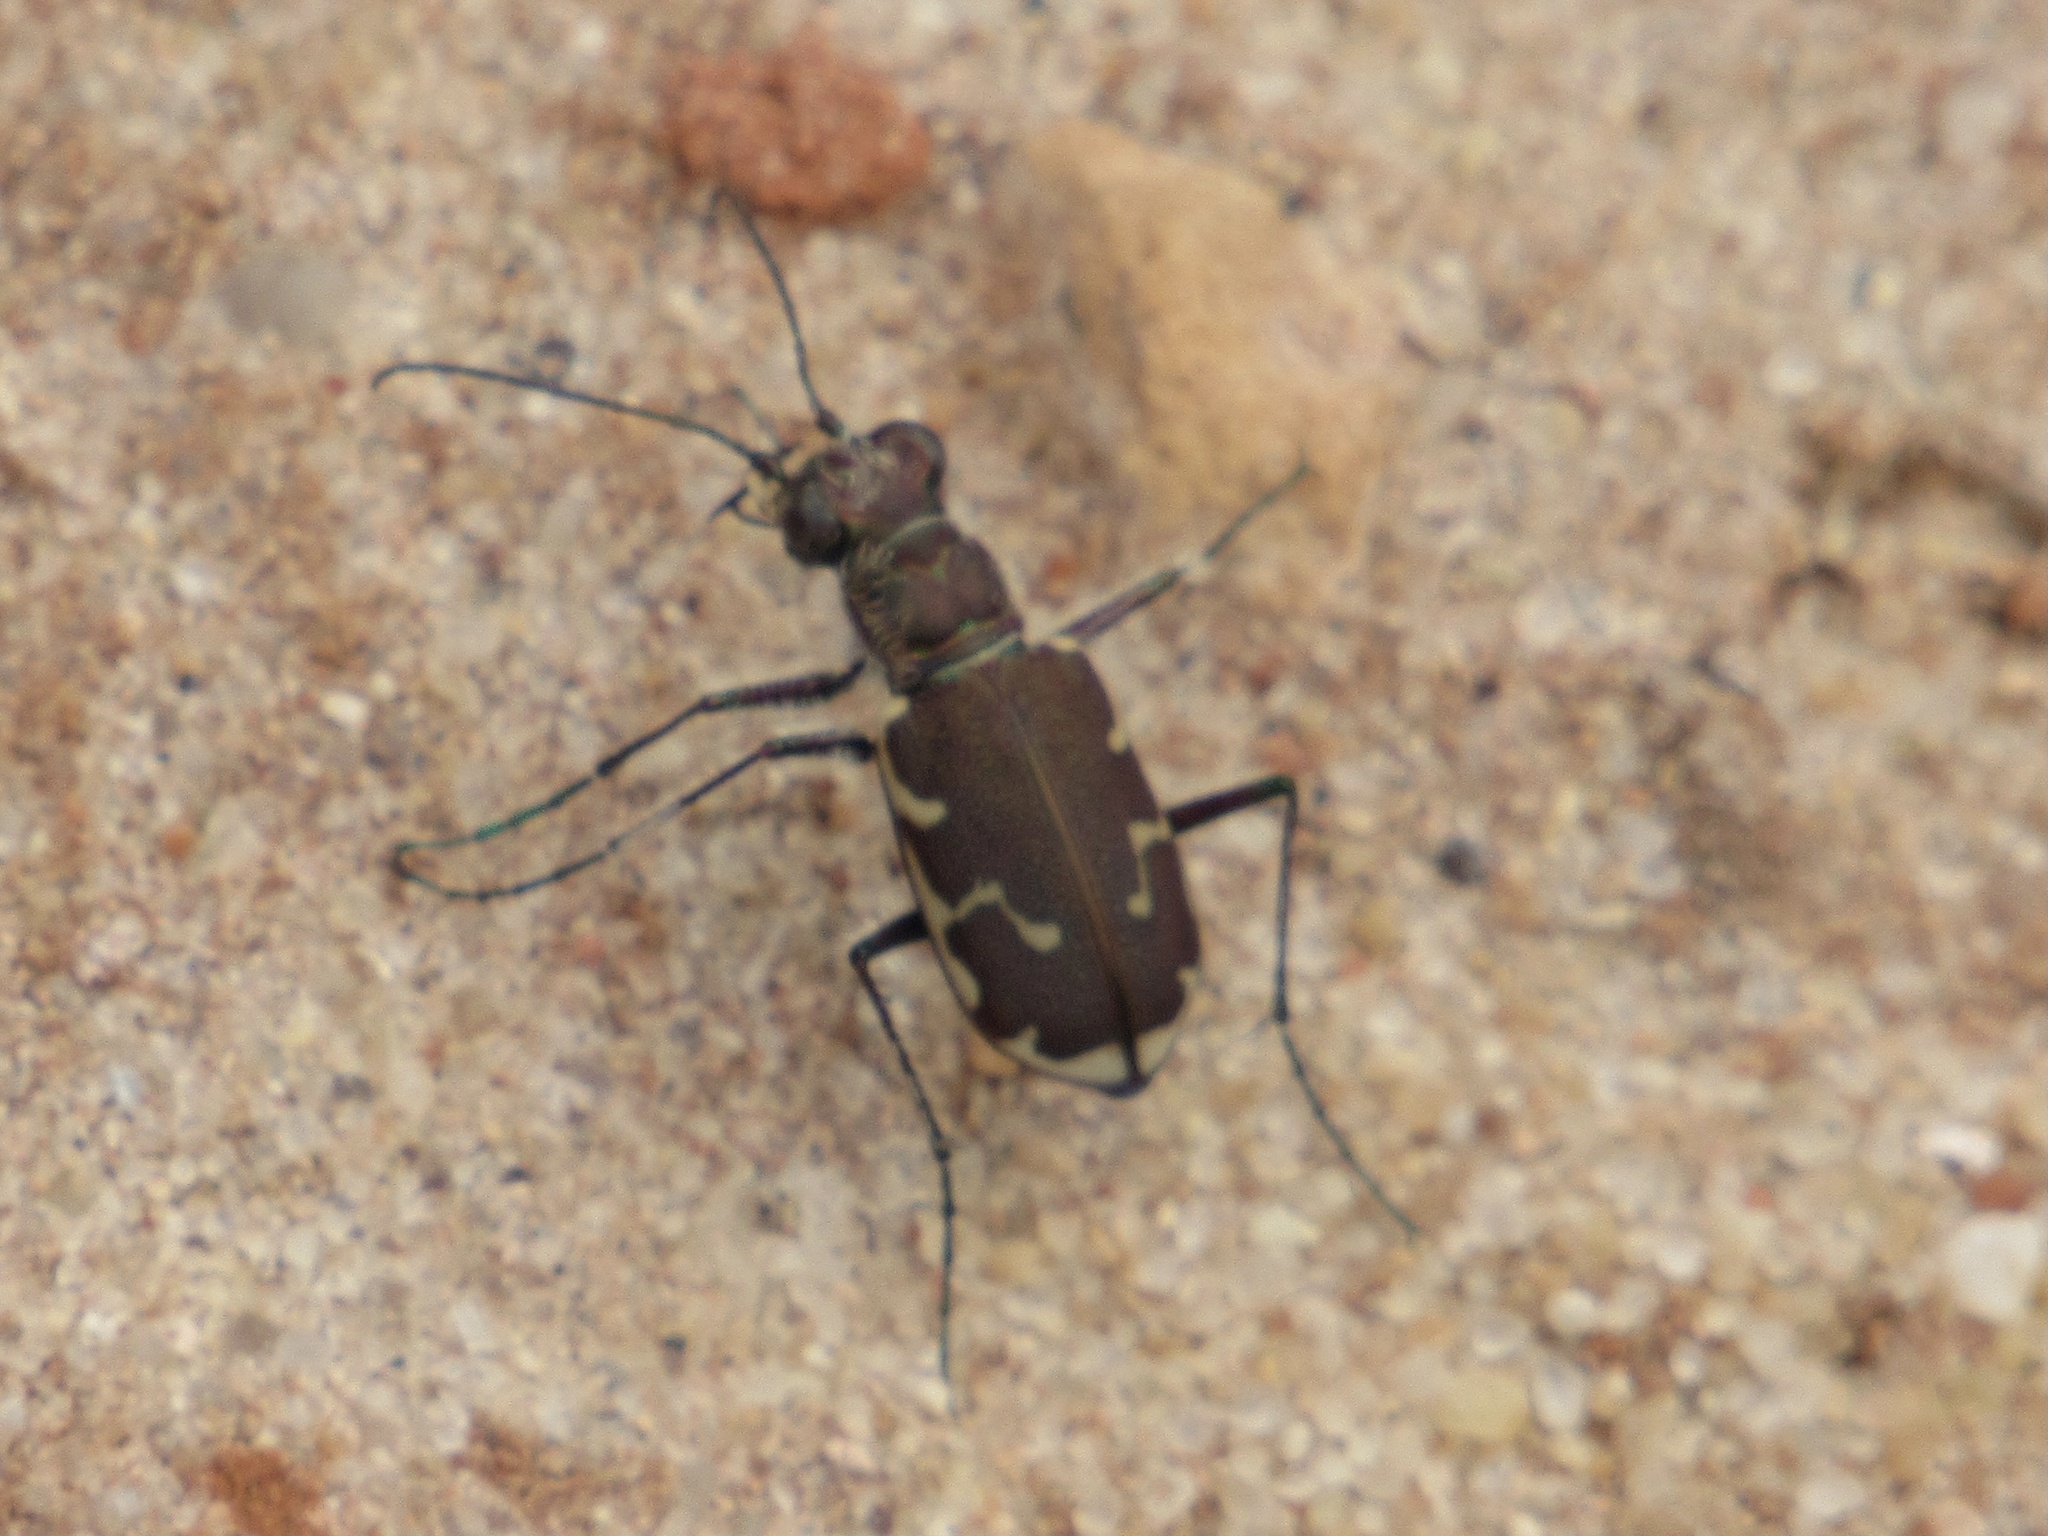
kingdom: Animalia
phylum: Arthropoda
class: Insecta
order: Coleoptera
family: Carabidae
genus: Cicindela
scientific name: Cicindela repanda
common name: Bronzed tiger beetle
